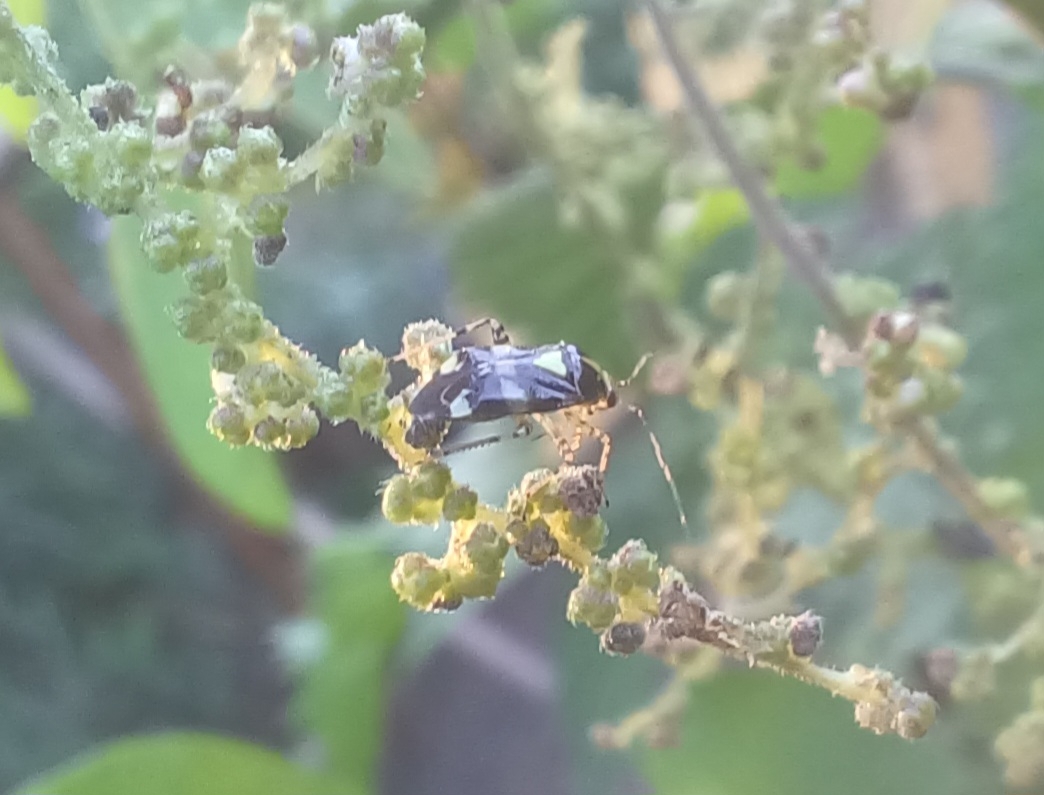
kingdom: Animalia
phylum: Arthropoda
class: Insecta
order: Hemiptera
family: Miridae
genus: Liocoris
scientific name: Liocoris tripustulatus
